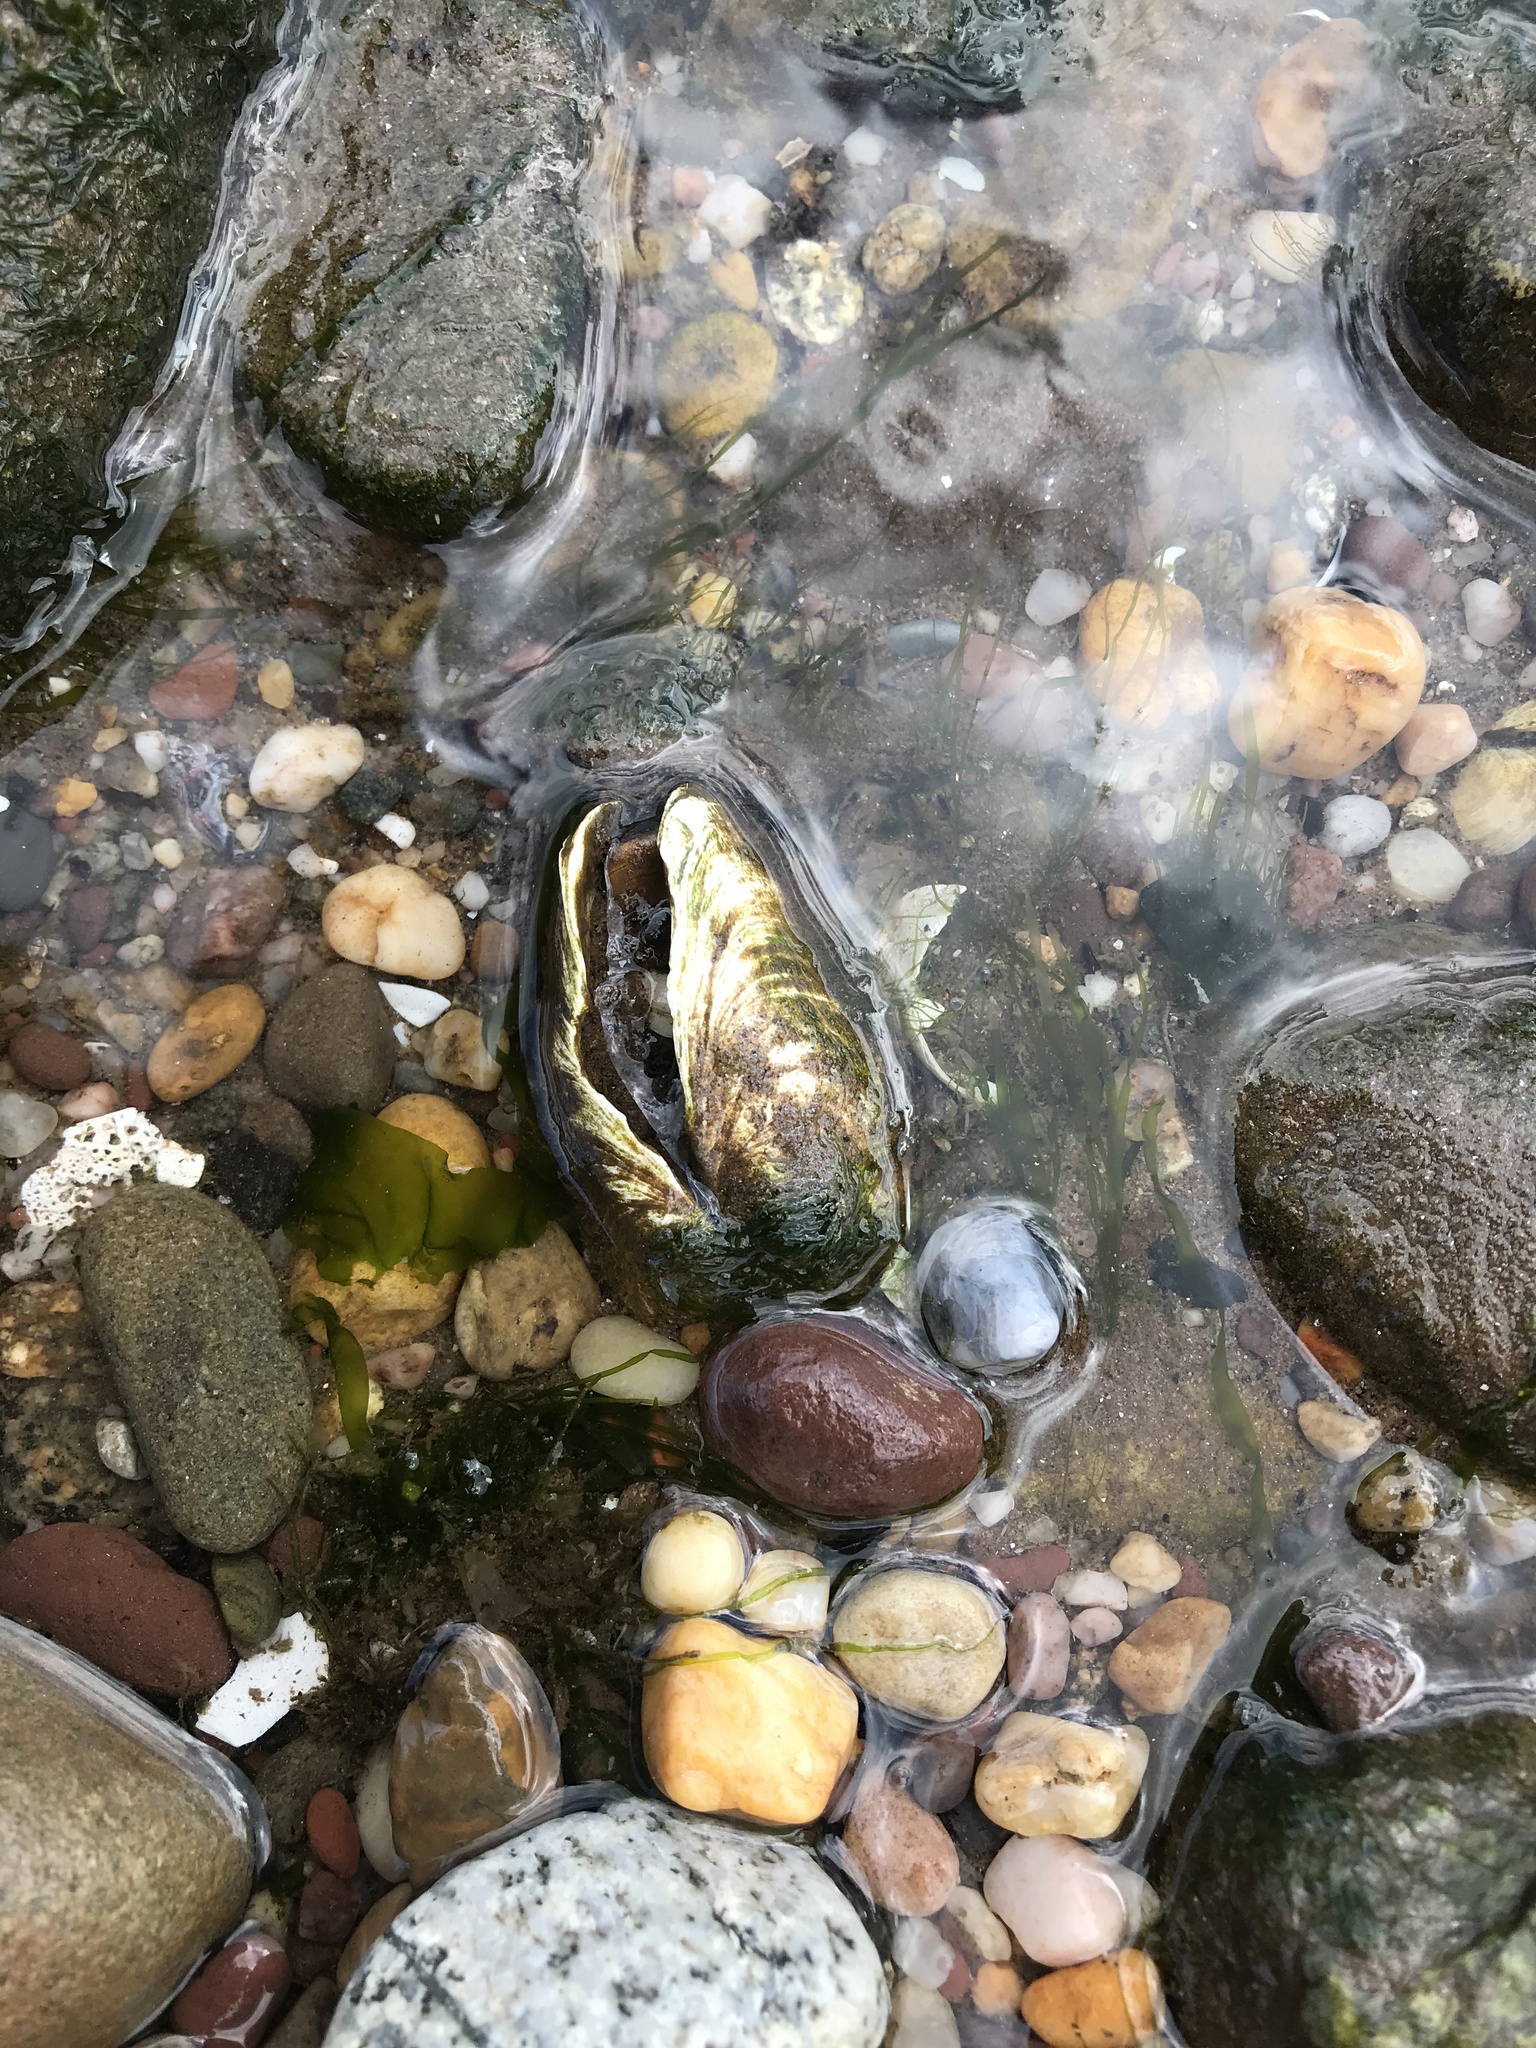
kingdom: Animalia
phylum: Mollusca
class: Bivalvia
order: Myida
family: Myidae
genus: Mya
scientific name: Mya arenaria
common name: Soft-shelled clam
